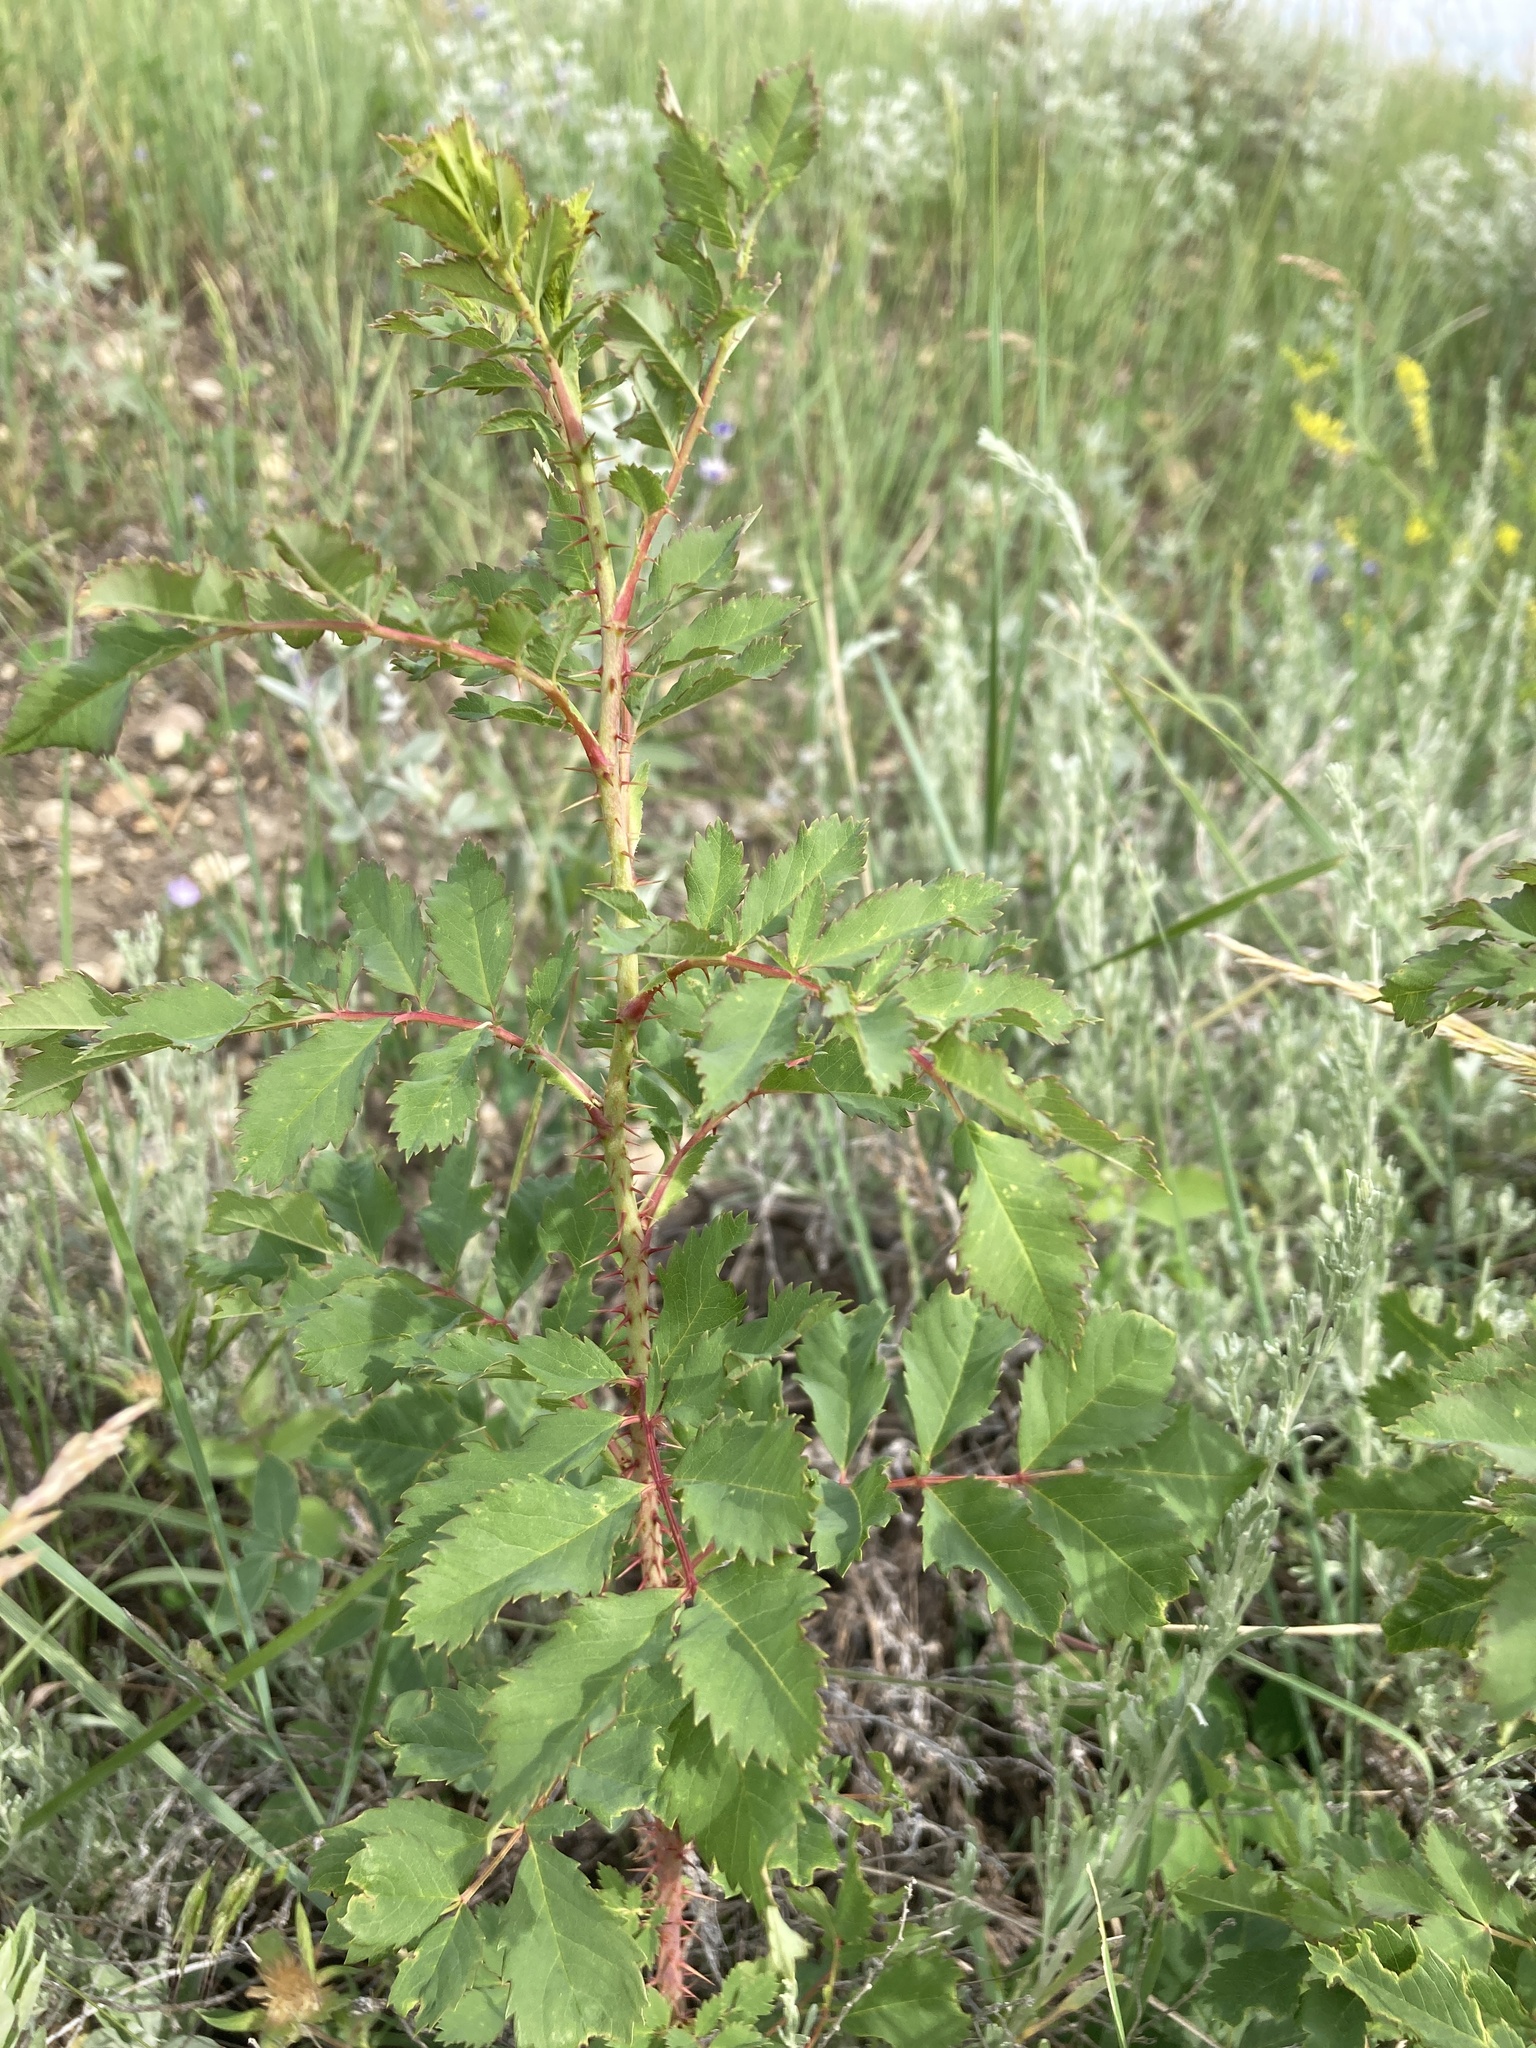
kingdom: Plantae
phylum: Tracheophyta
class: Magnoliopsida
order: Rosales
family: Rosaceae
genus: Rosa
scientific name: Rosa arkansana
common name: Prairie rose
